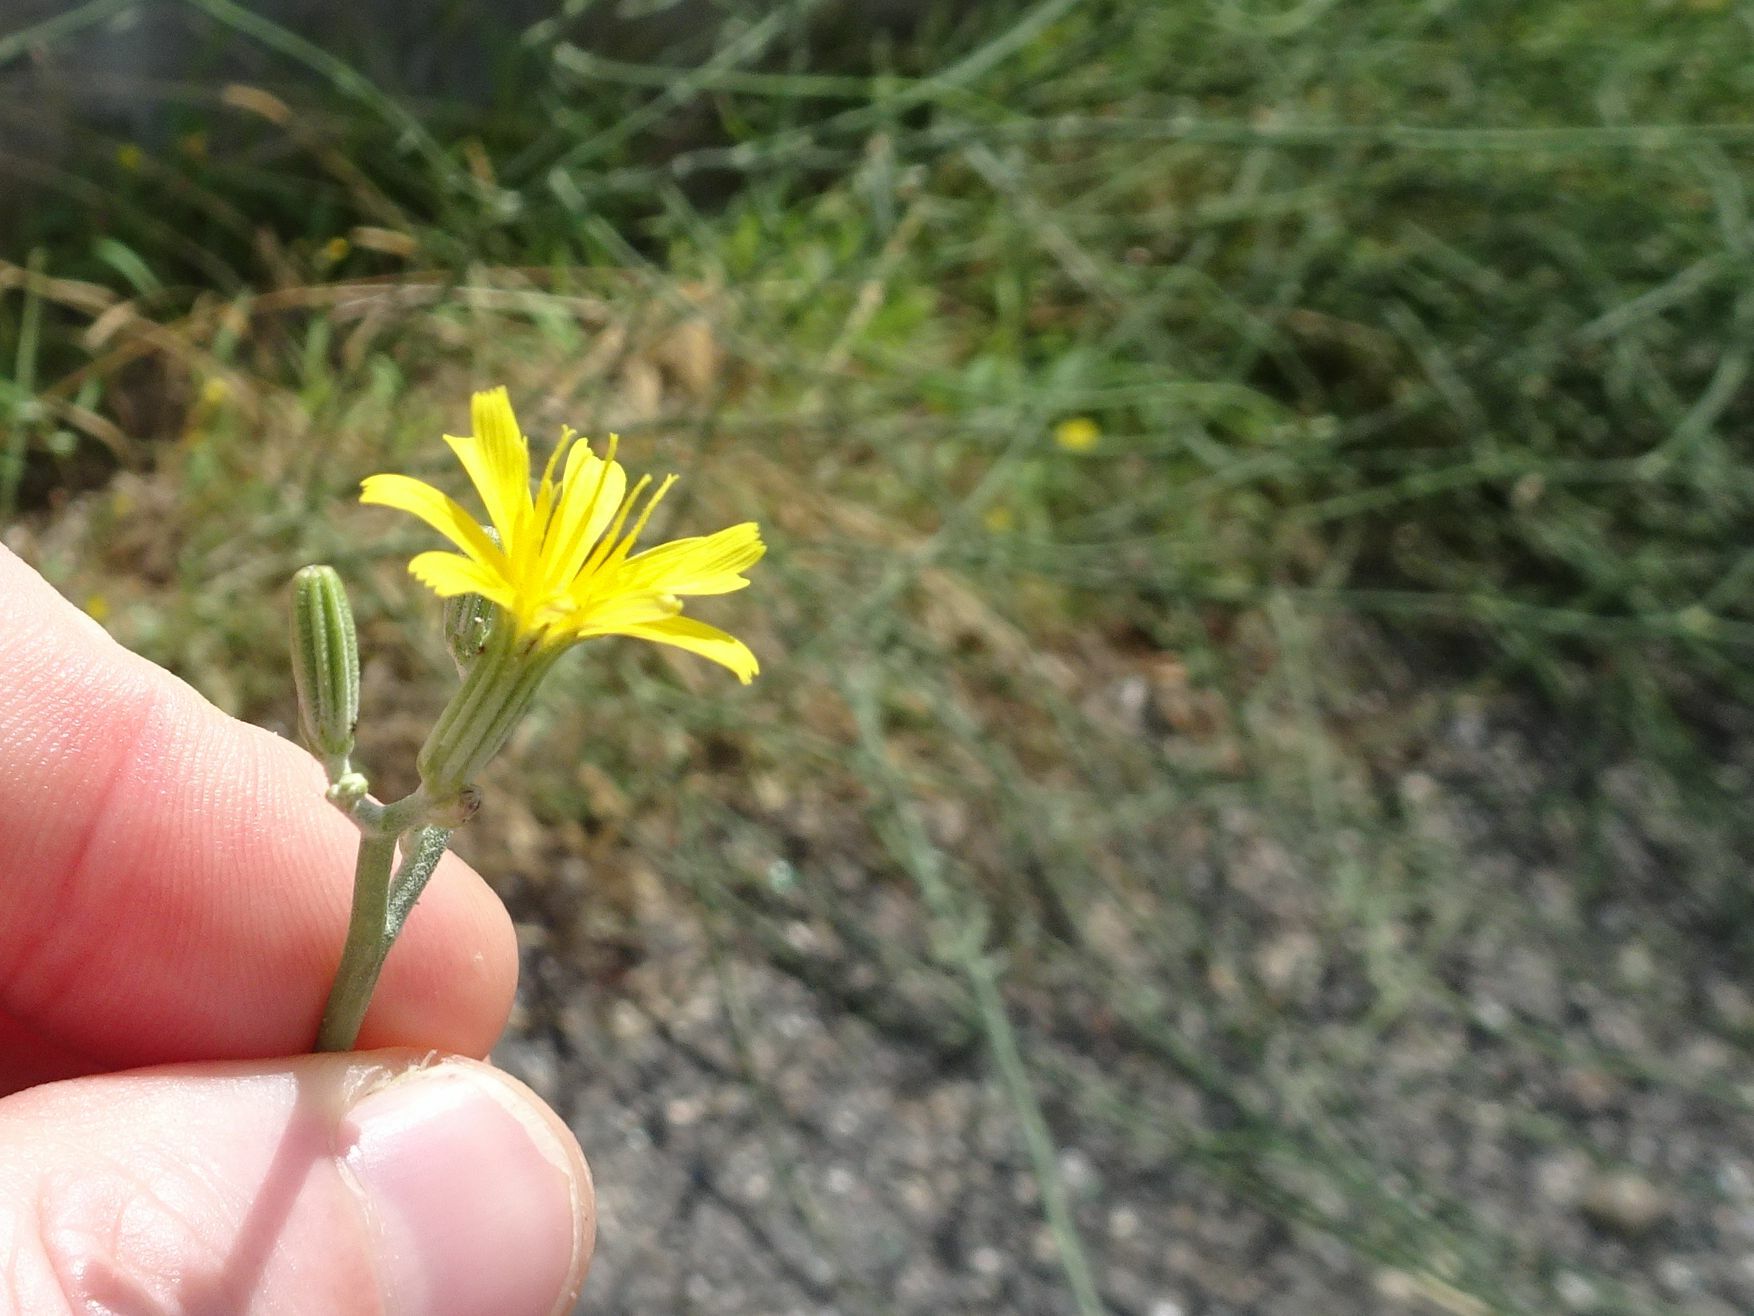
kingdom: Plantae
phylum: Tracheophyta
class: Magnoliopsida
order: Asterales
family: Asteraceae
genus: Chondrilla
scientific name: Chondrilla juncea
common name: Skeleton weed
